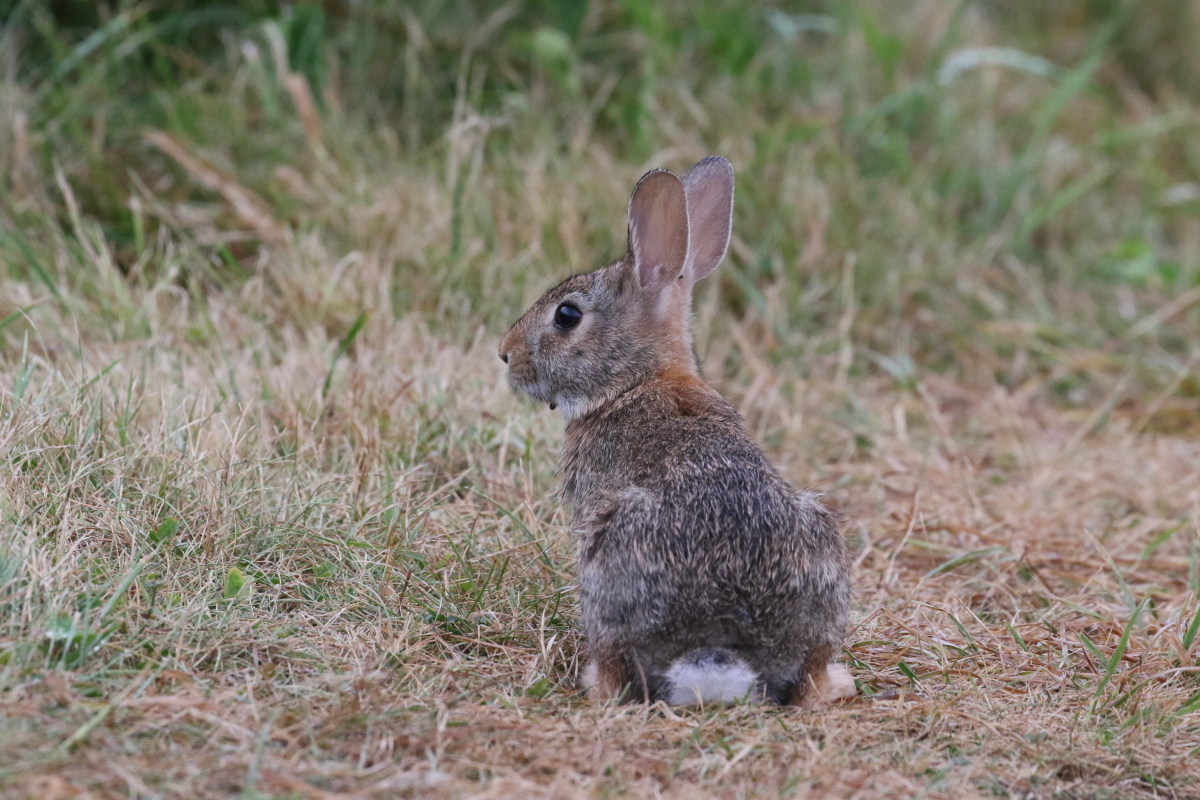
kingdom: Animalia
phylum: Chordata
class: Mammalia
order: Lagomorpha
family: Leporidae
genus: Sylvilagus
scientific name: Sylvilagus floridanus
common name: Eastern cottontail
